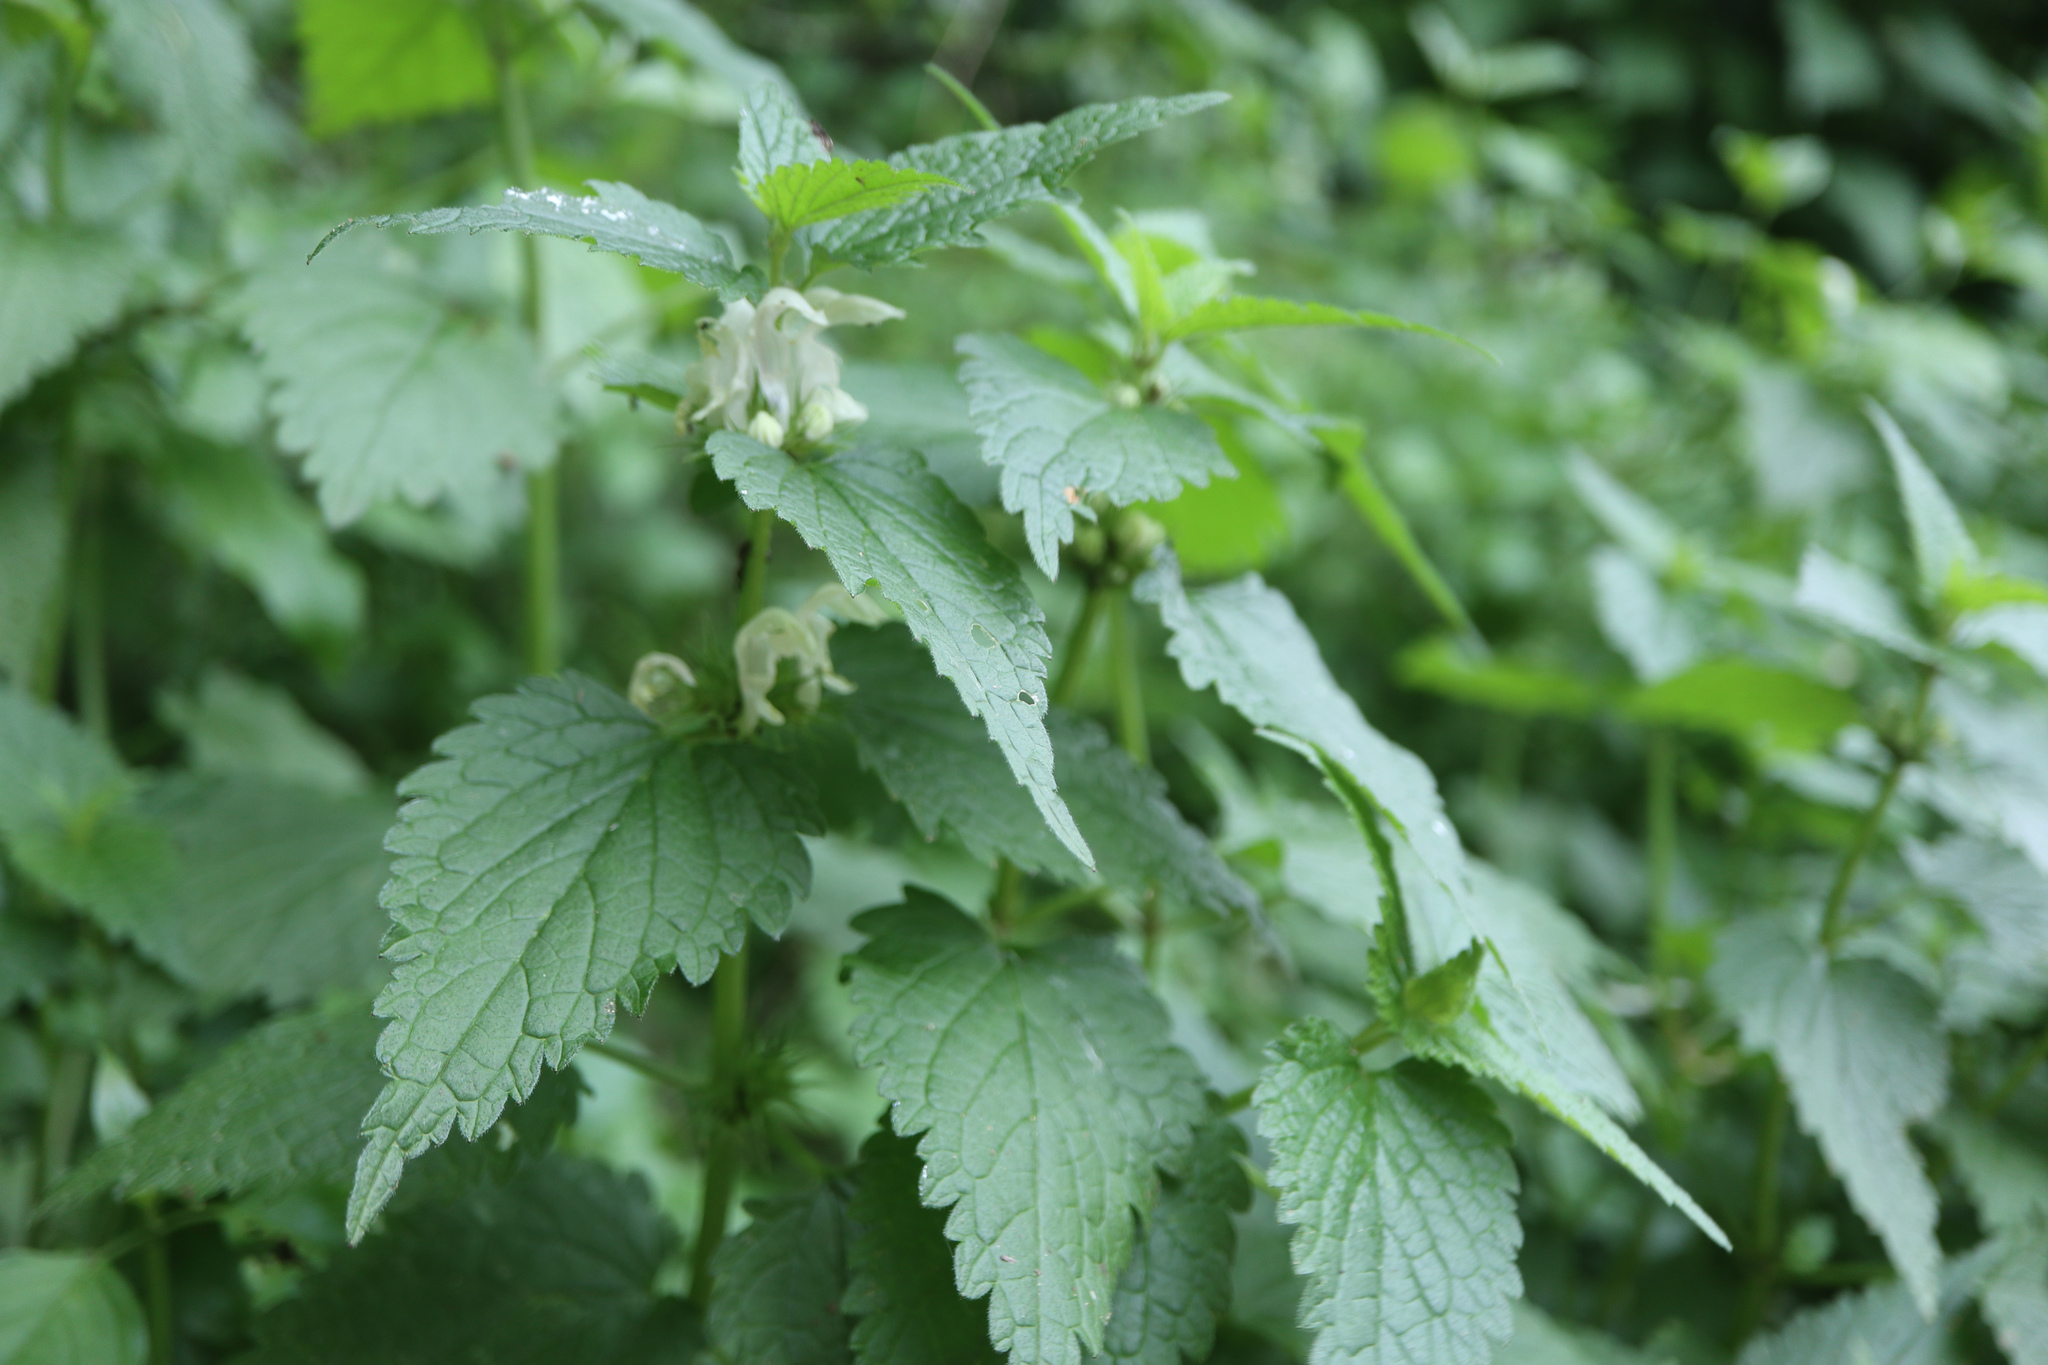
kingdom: Plantae
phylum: Tracheophyta
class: Magnoliopsida
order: Lamiales
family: Lamiaceae
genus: Lamium
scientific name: Lamium album
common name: White dead-nettle
